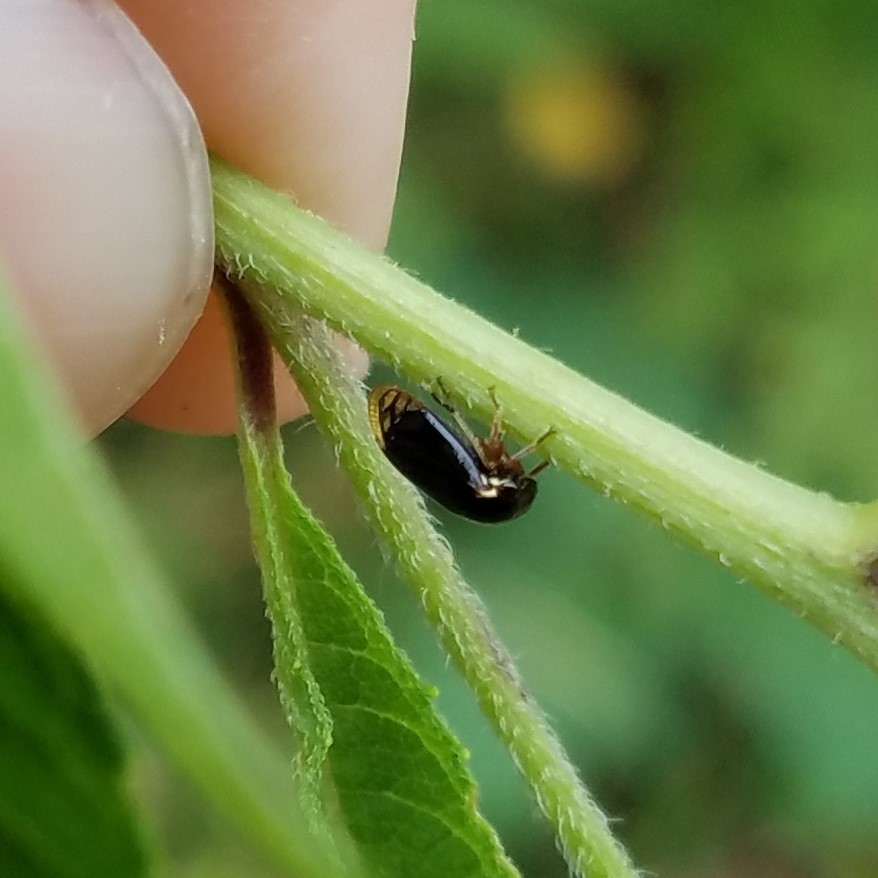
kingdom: Animalia
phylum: Arthropoda
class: Insecta
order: Hemiptera
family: Membracidae
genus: Acutalis
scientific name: Acutalis tartarea
